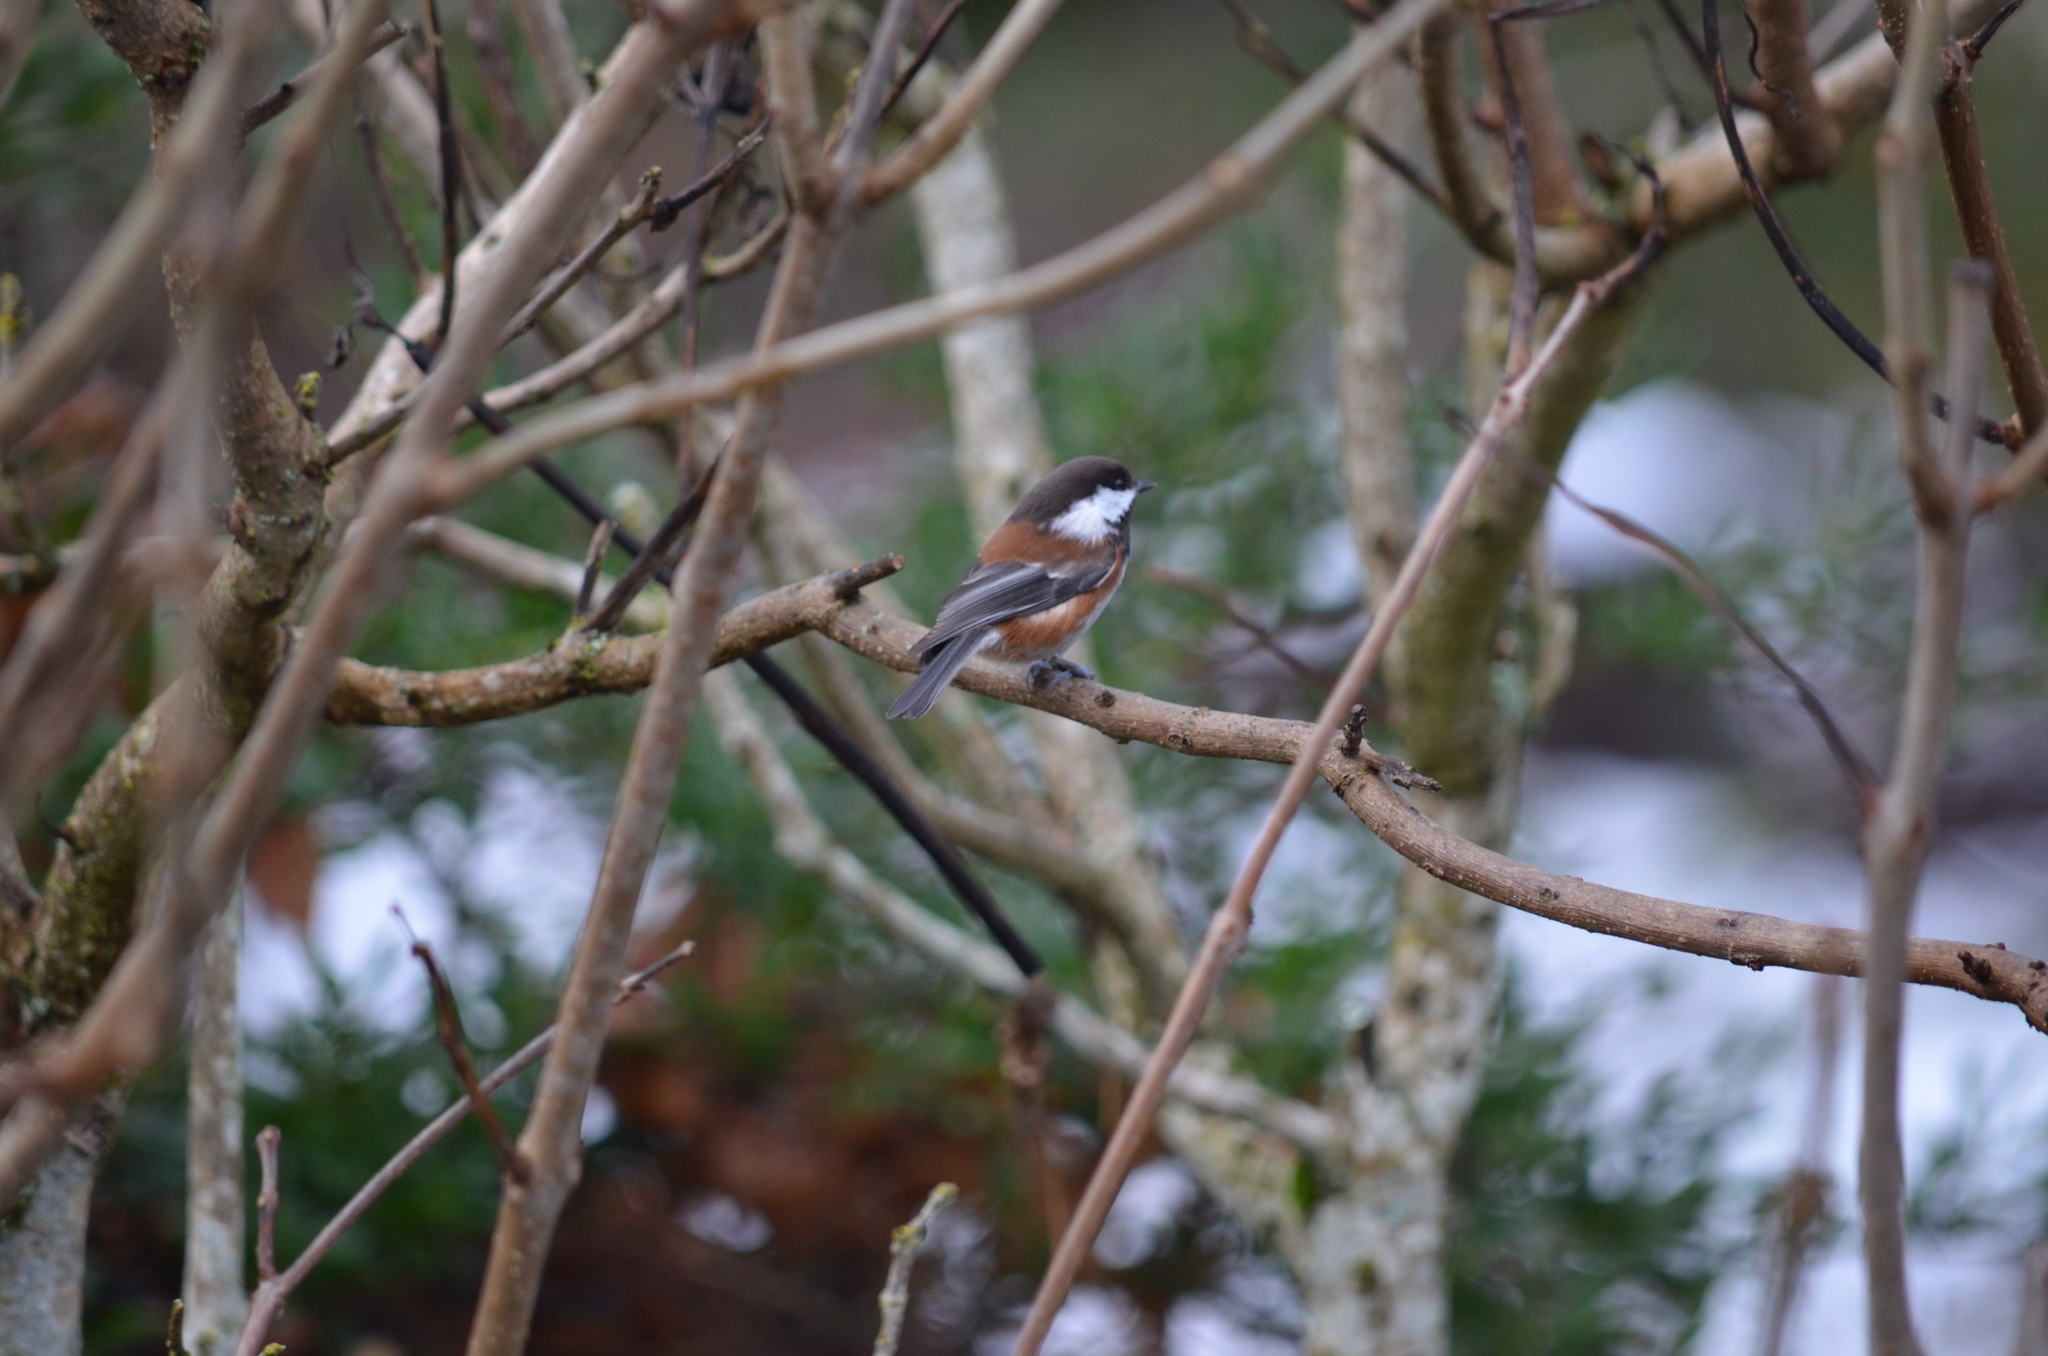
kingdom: Animalia
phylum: Chordata
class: Aves
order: Passeriformes
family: Paridae
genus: Poecile
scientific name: Poecile rufescens
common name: Chestnut-backed chickadee
